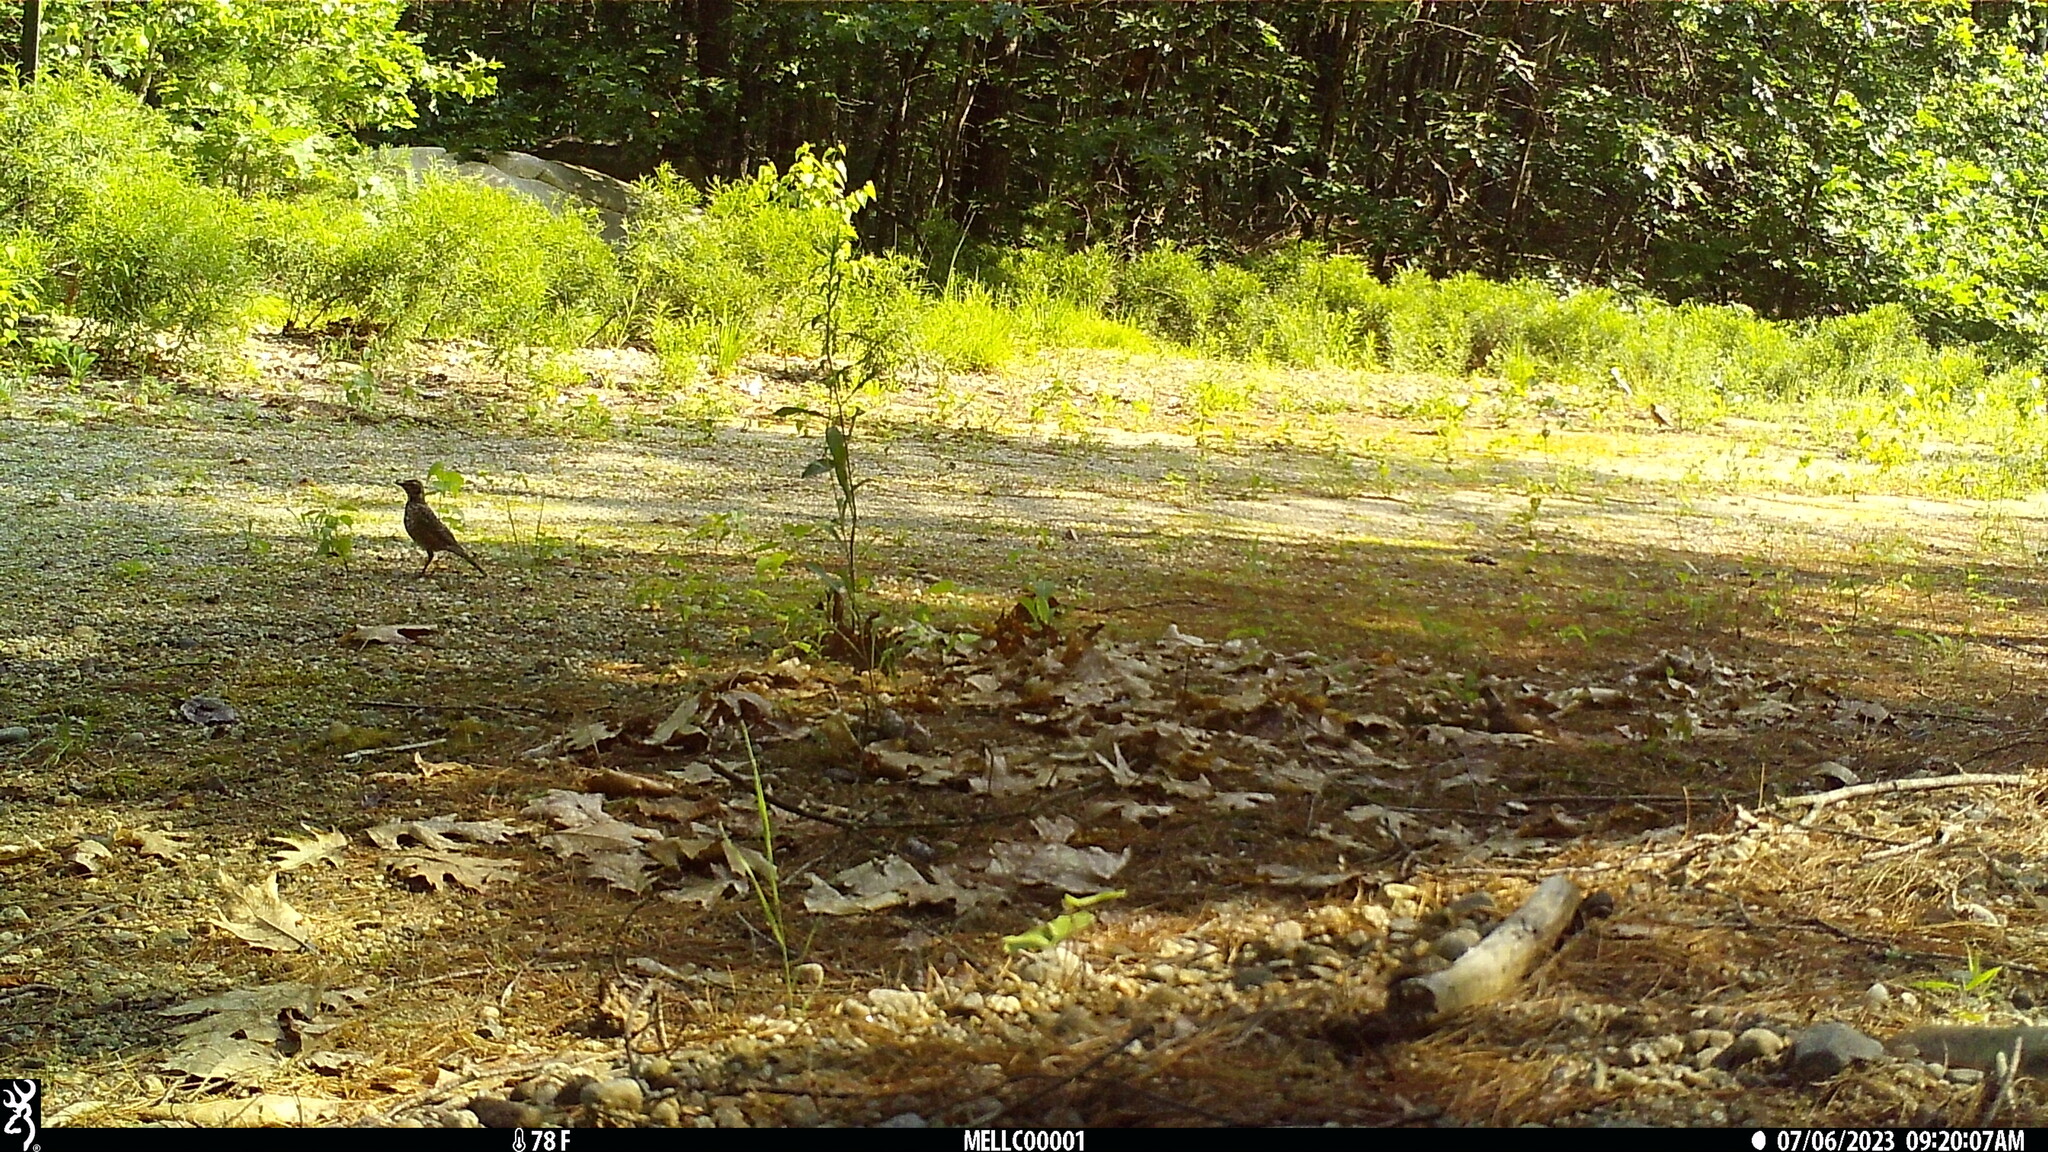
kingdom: Animalia
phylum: Chordata
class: Aves
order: Passeriformes
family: Turdidae
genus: Turdus
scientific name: Turdus migratorius
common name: American robin
